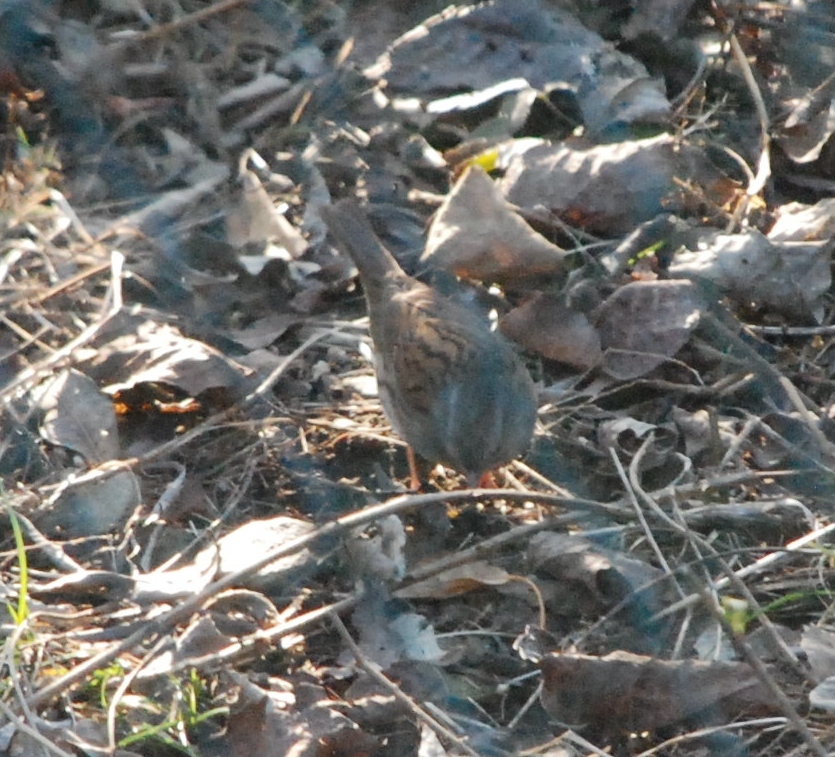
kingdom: Animalia
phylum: Chordata
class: Aves
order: Passeriformes
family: Prunellidae
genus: Prunella
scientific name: Prunella modularis
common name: Dunnock
